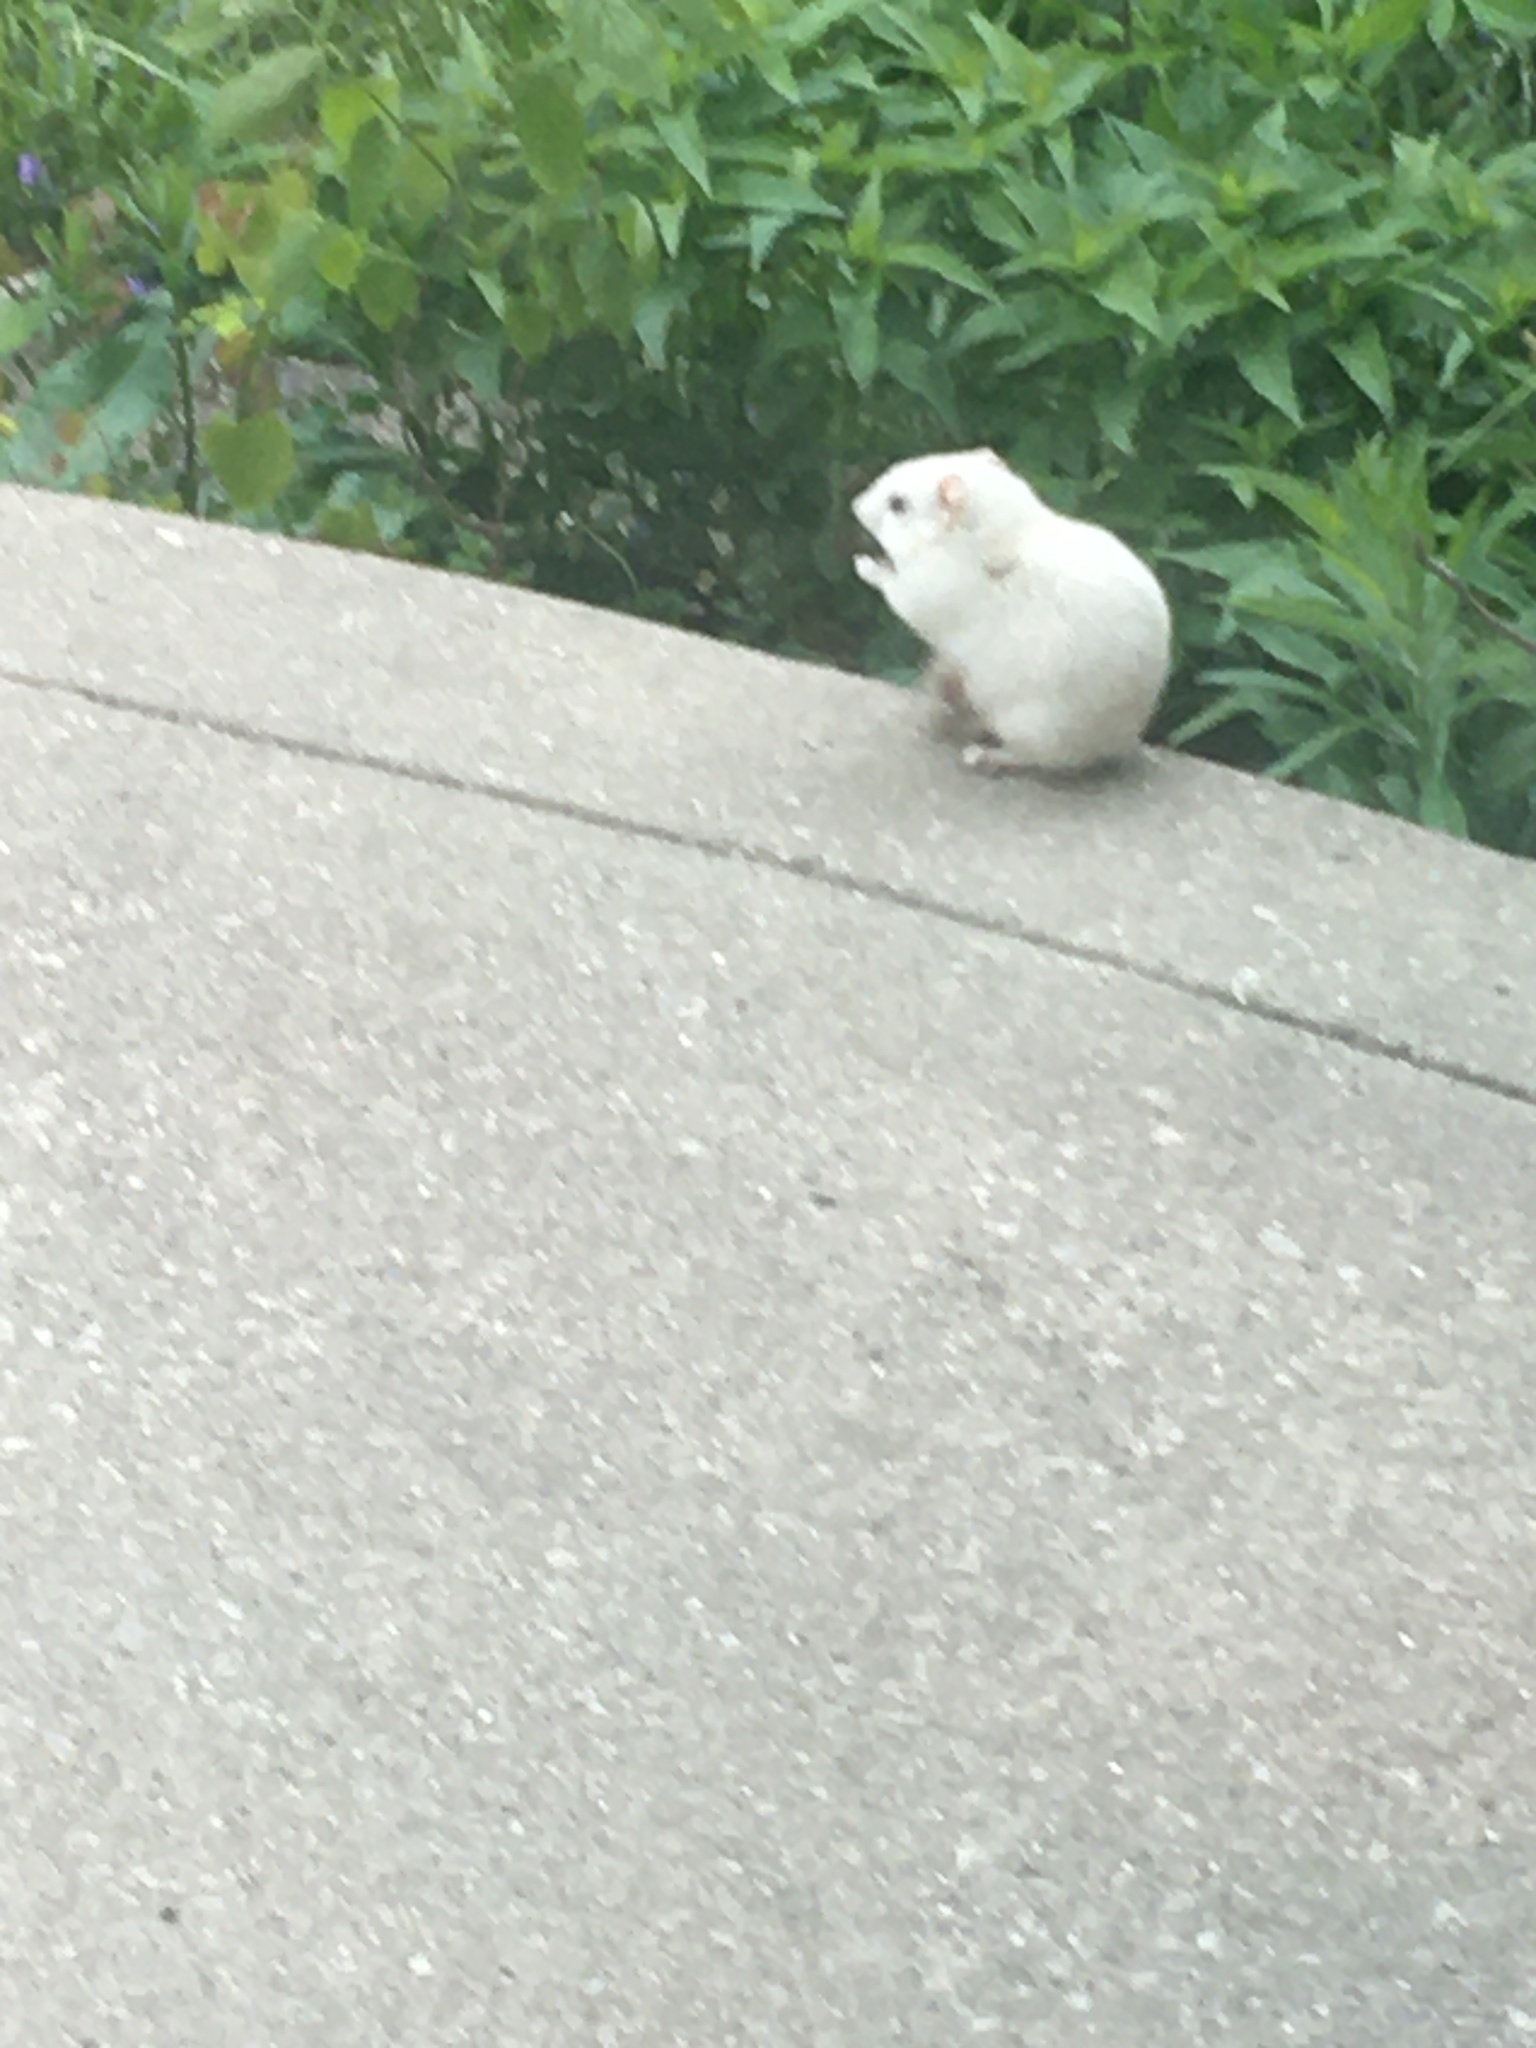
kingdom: Animalia
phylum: Chordata
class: Mammalia
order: Rodentia
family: Sciuridae
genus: Tamias
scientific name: Tamias striatus
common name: Eastern chipmunk
